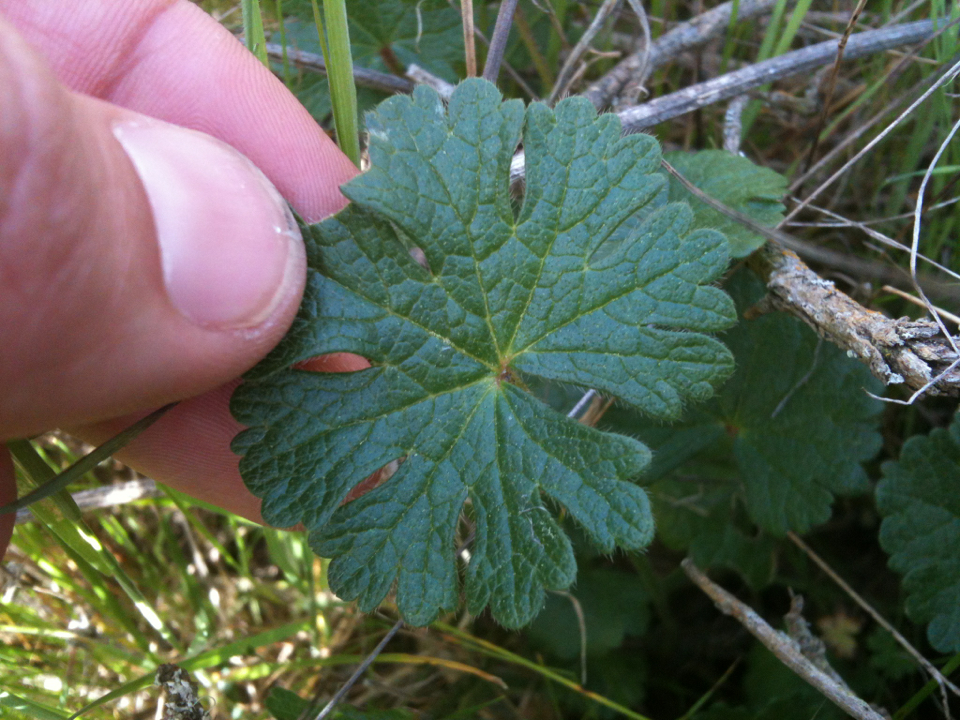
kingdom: Plantae
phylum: Tracheophyta
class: Magnoliopsida
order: Malvales
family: Malvaceae
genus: Sidalcea
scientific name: Sidalcea malviflora
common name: Greek mallow
